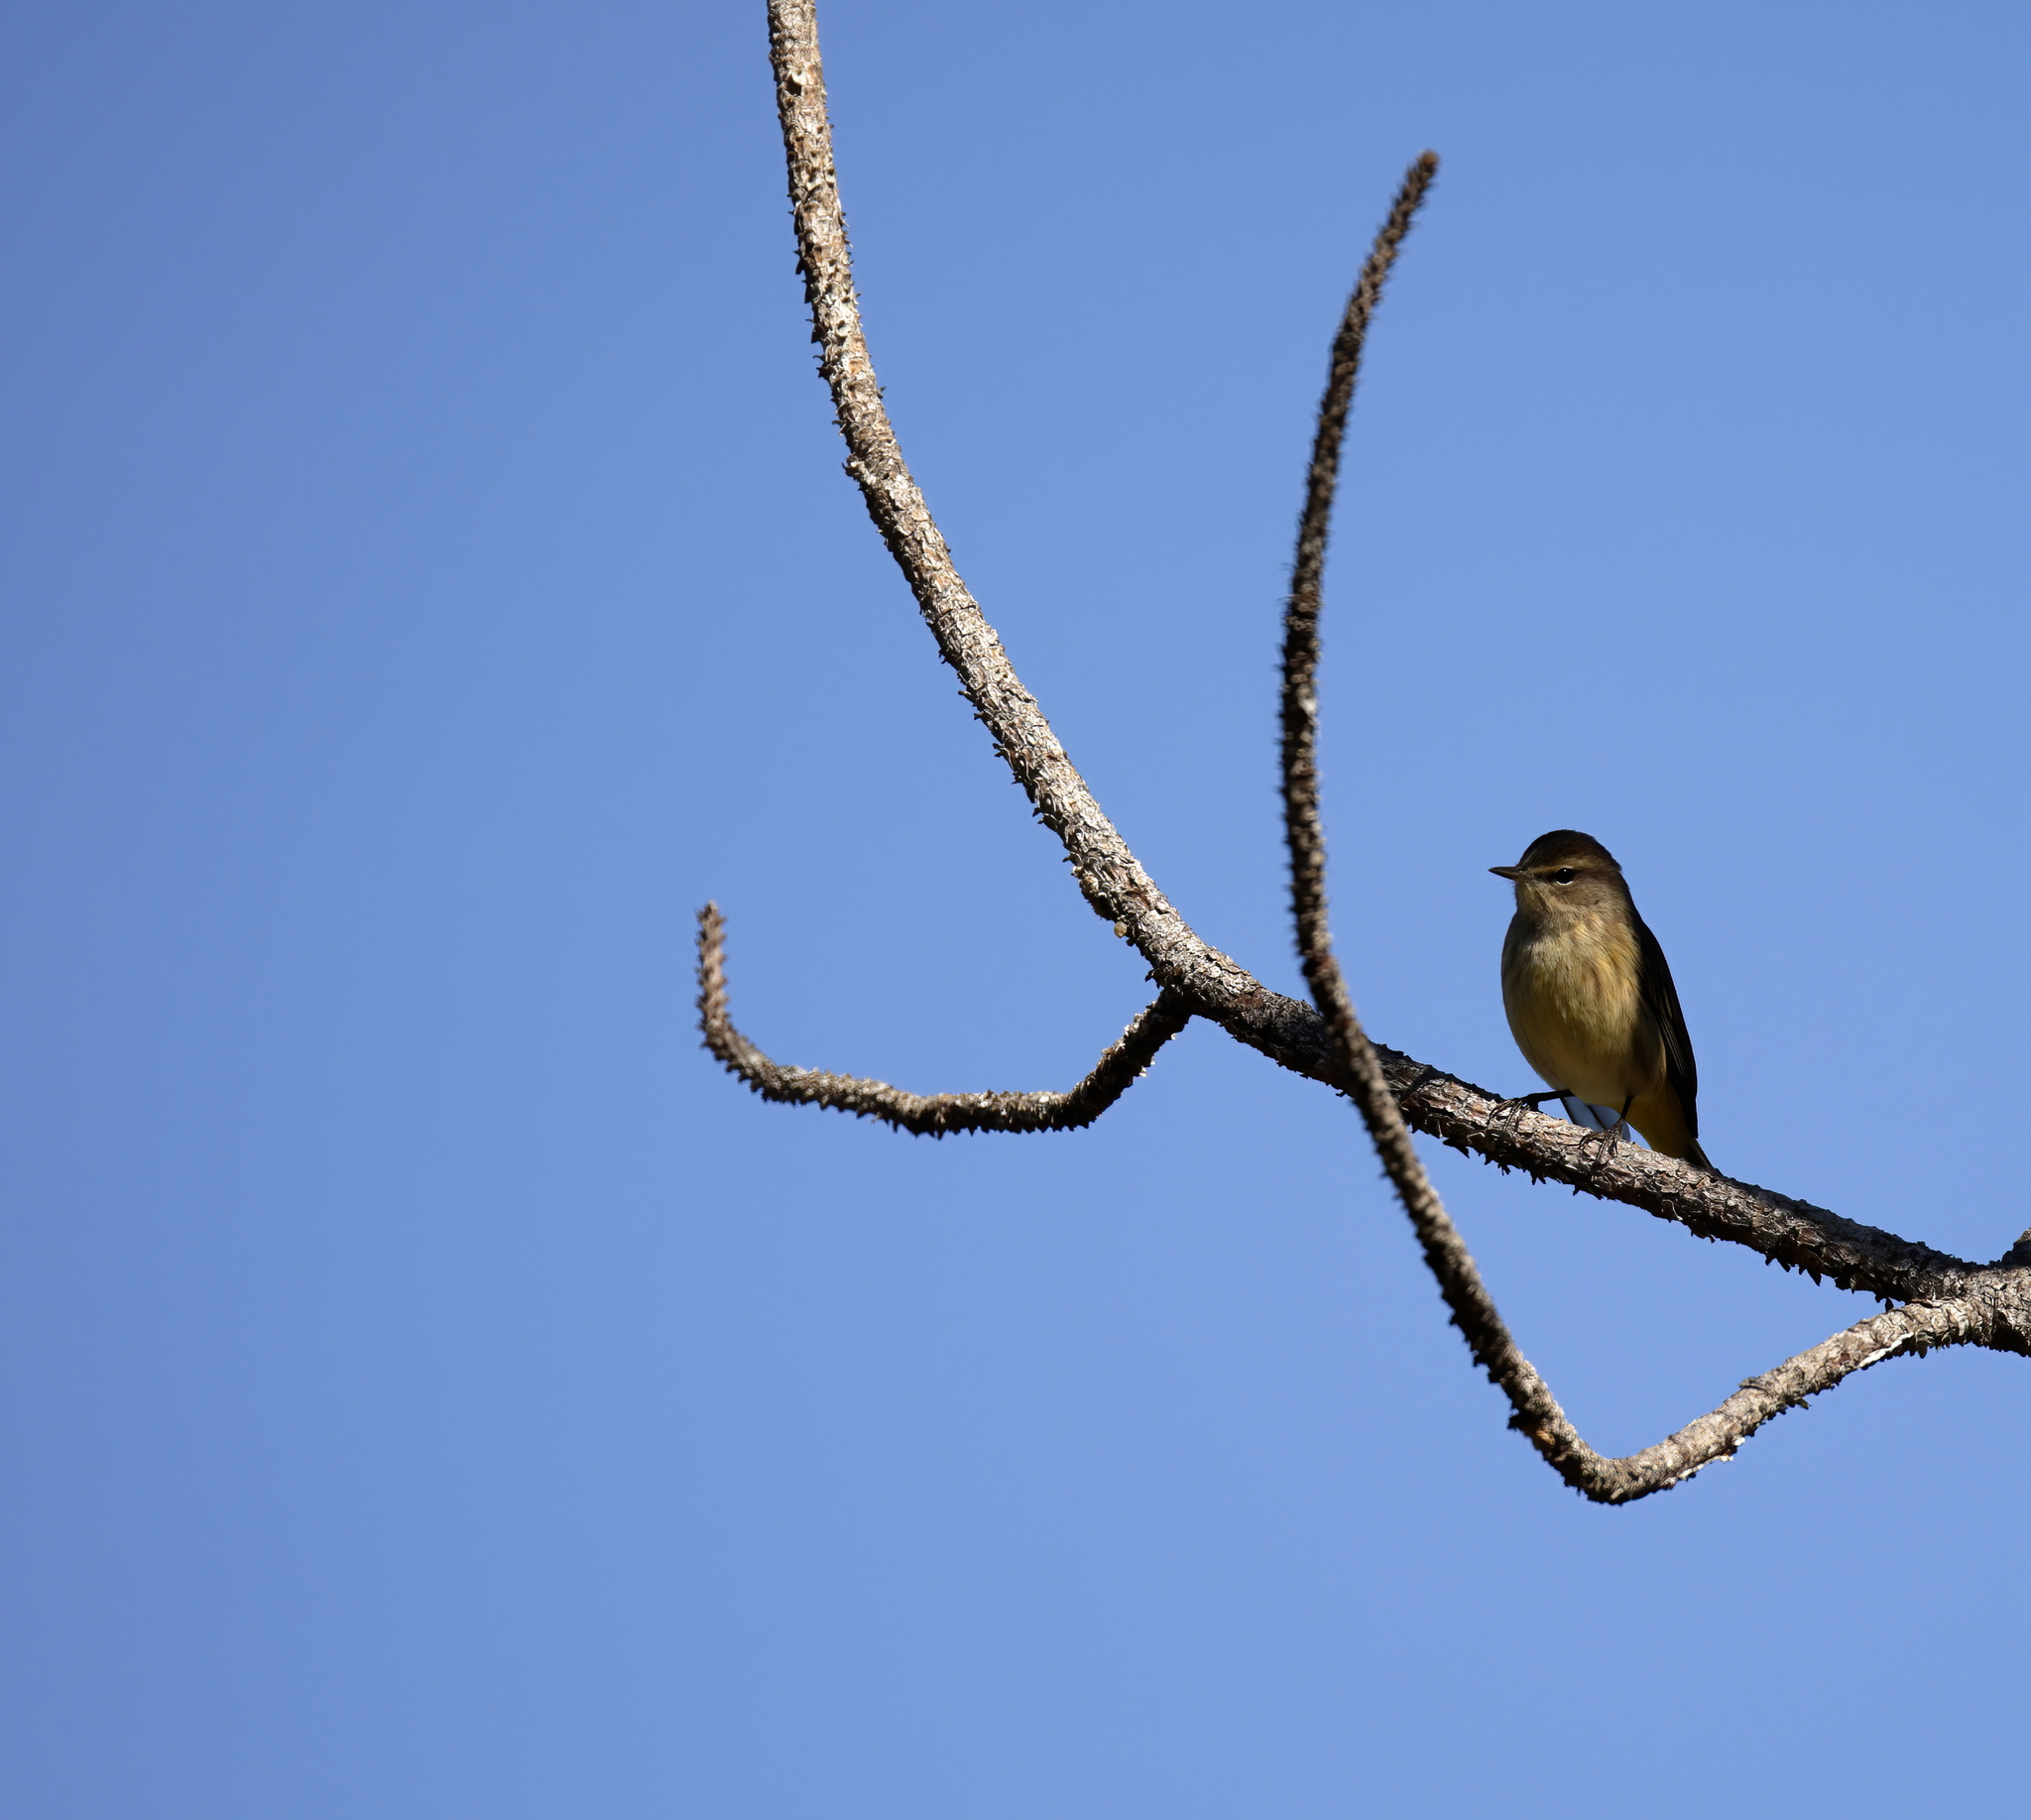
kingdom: Animalia
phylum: Chordata
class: Aves
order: Passeriformes
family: Parulidae
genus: Setophaga
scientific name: Setophaga palmarum
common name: Palm warbler
